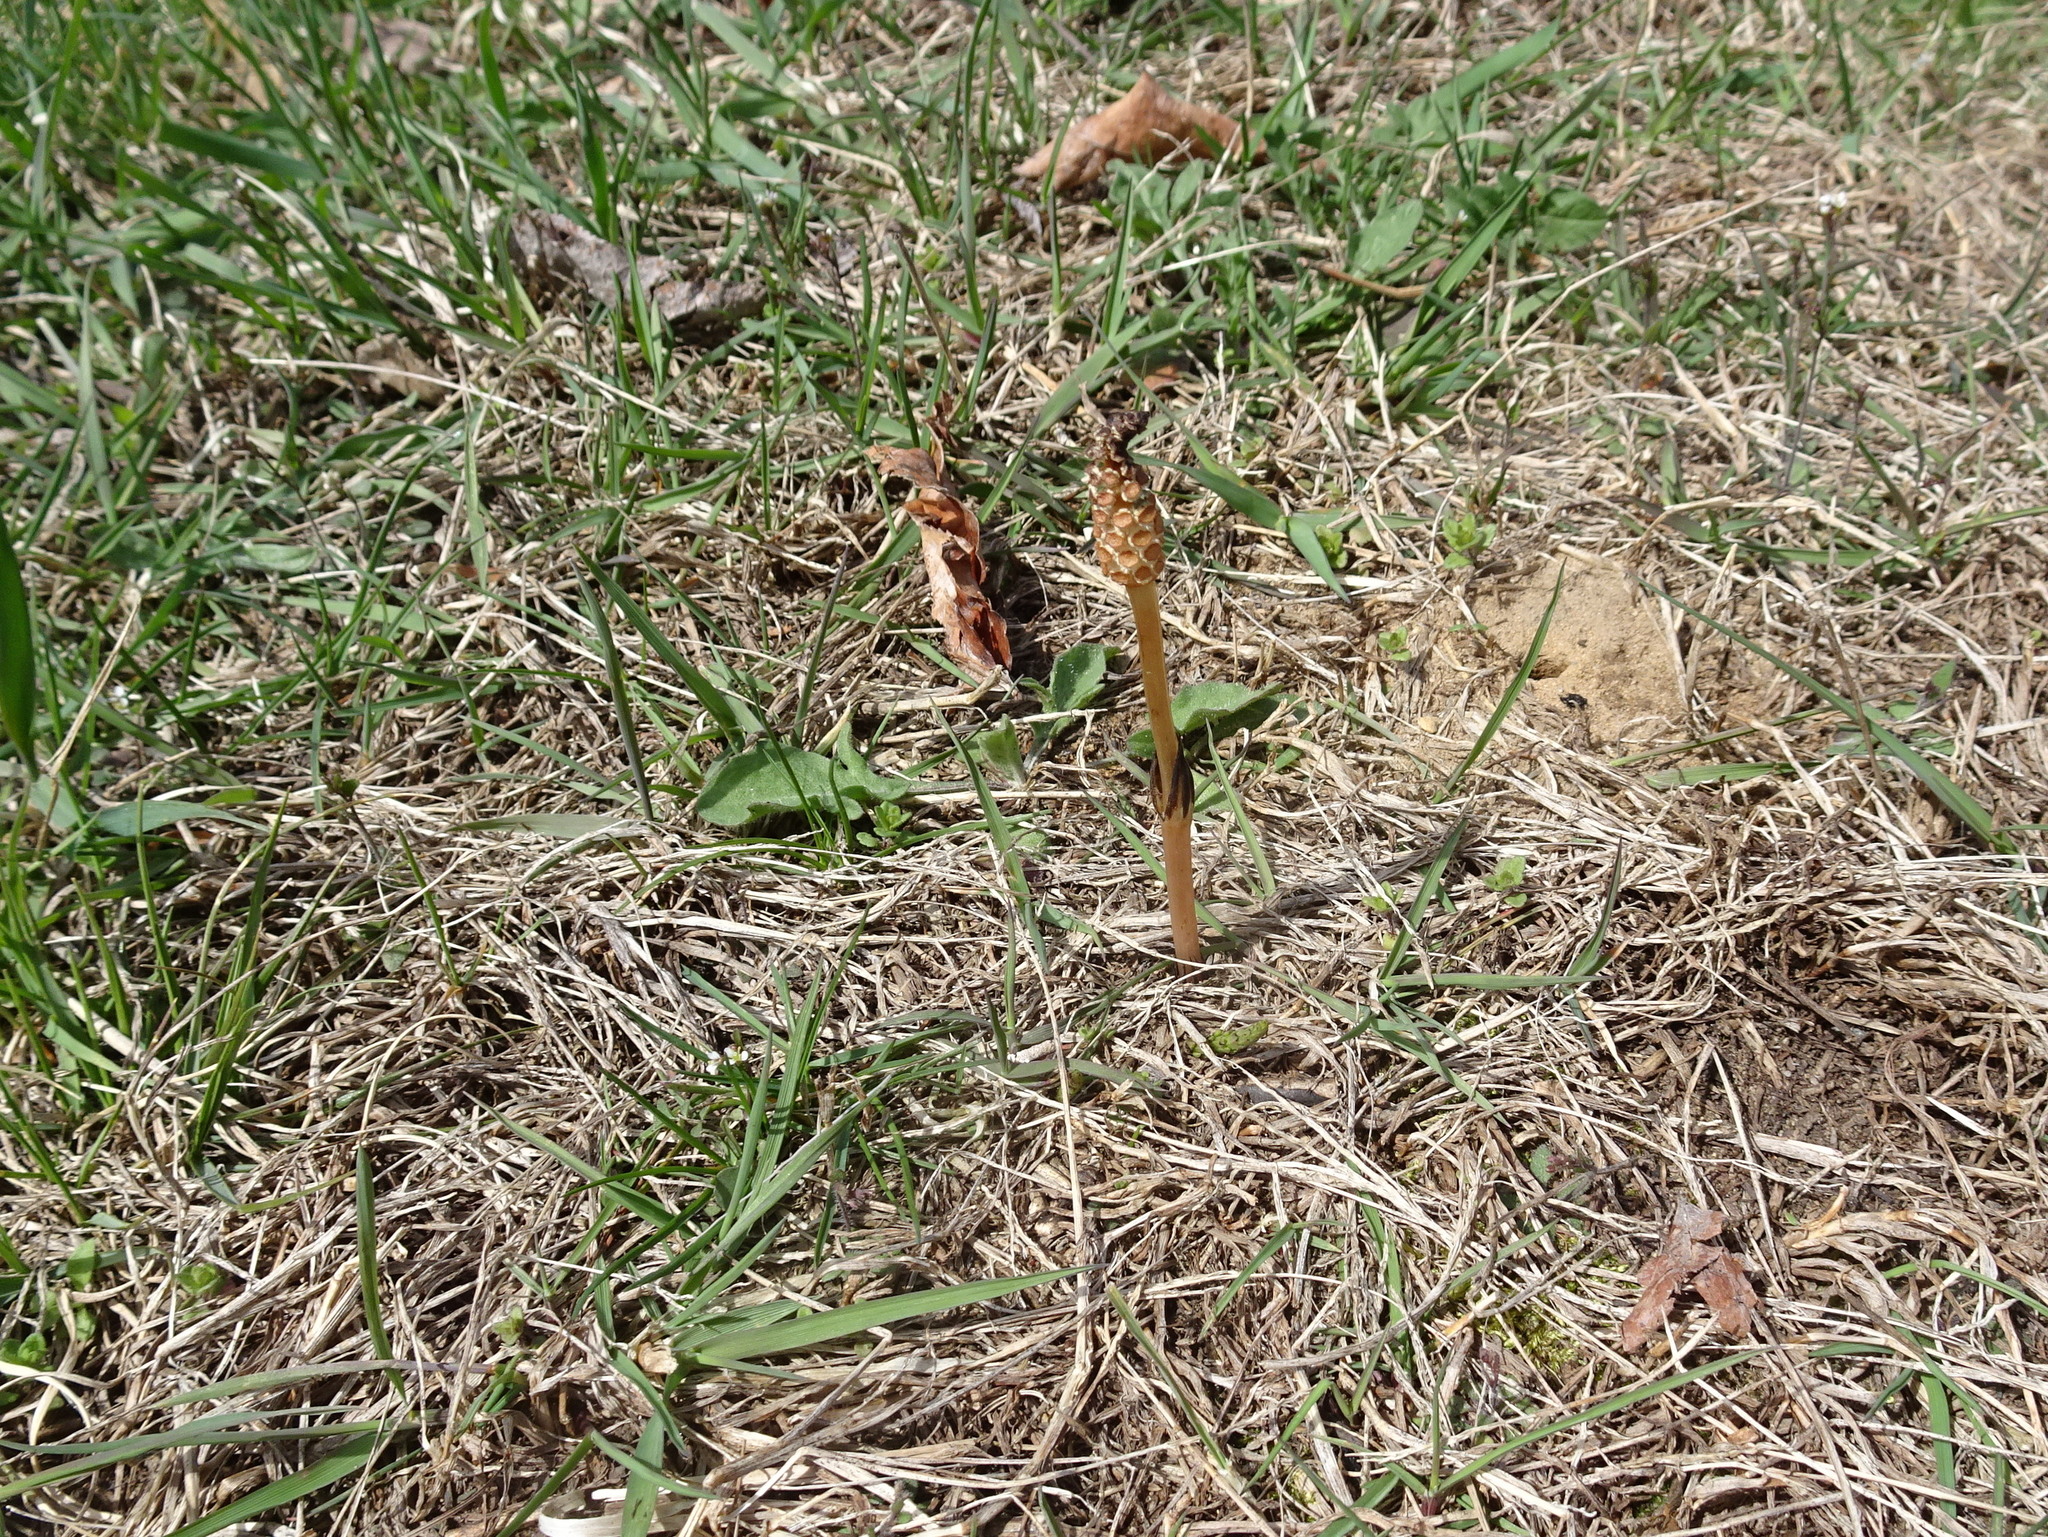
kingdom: Plantae
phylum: Tracheophyta
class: Polypodiopsida
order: Equisetales
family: Equisetaceae
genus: Equisetum
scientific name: Equisetum arvense
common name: Field horsetail
